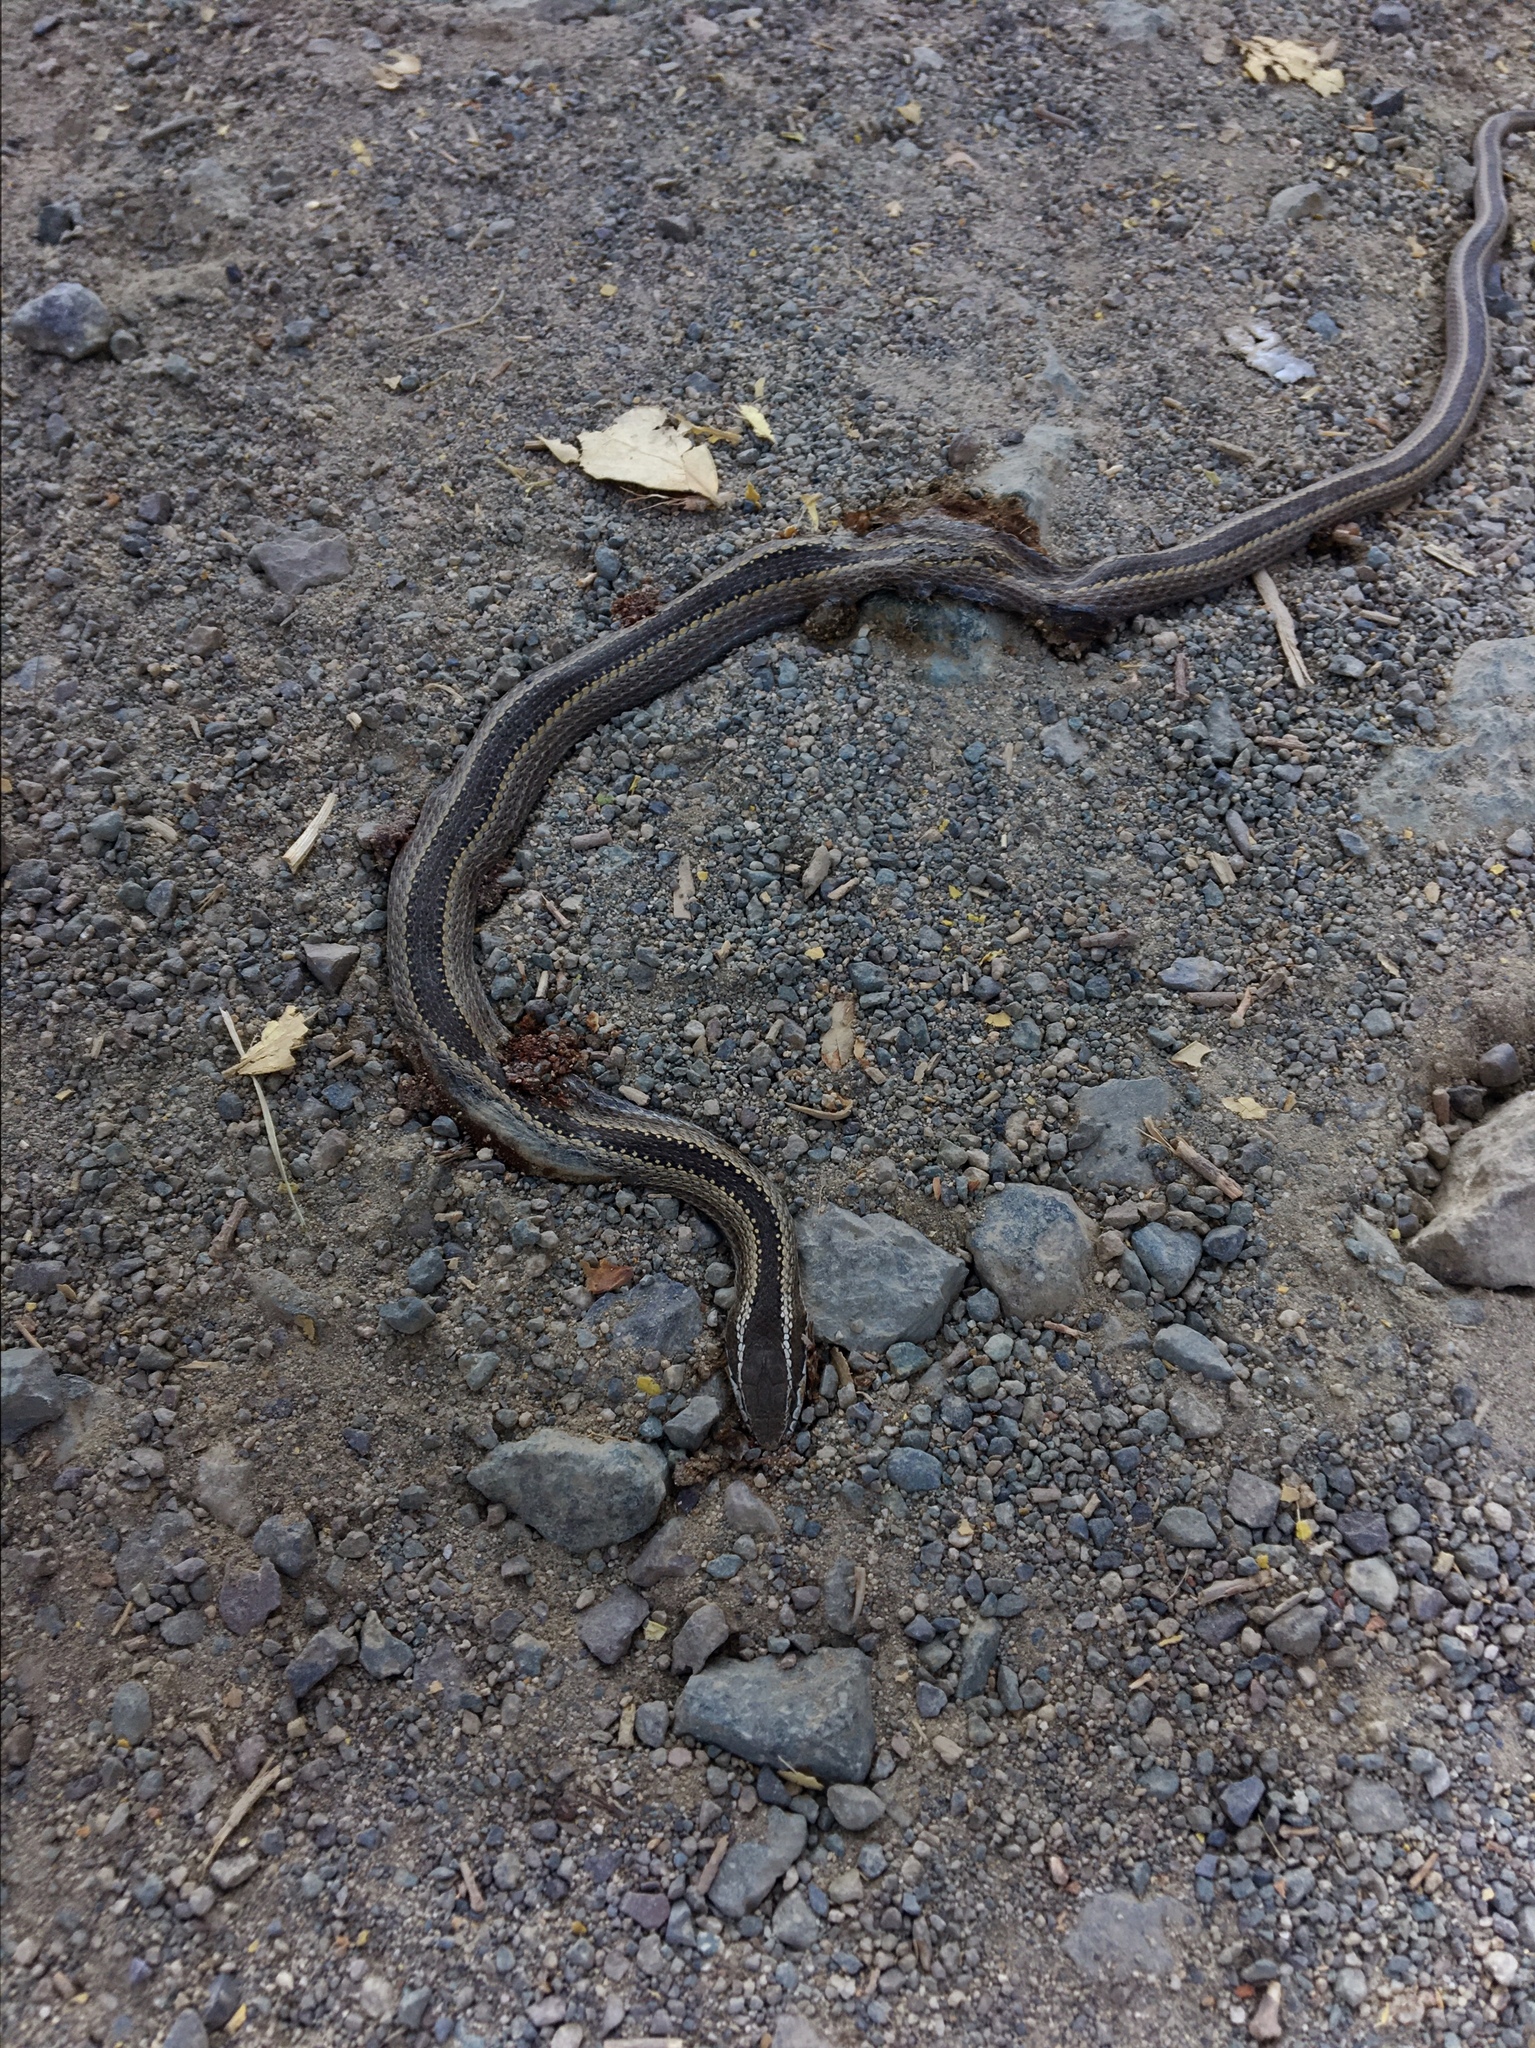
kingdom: Animalia
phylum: Chordata
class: Squamata
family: Colubridae
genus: Philodryas
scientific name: Philodryas chamissonis
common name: Chilean green racer
